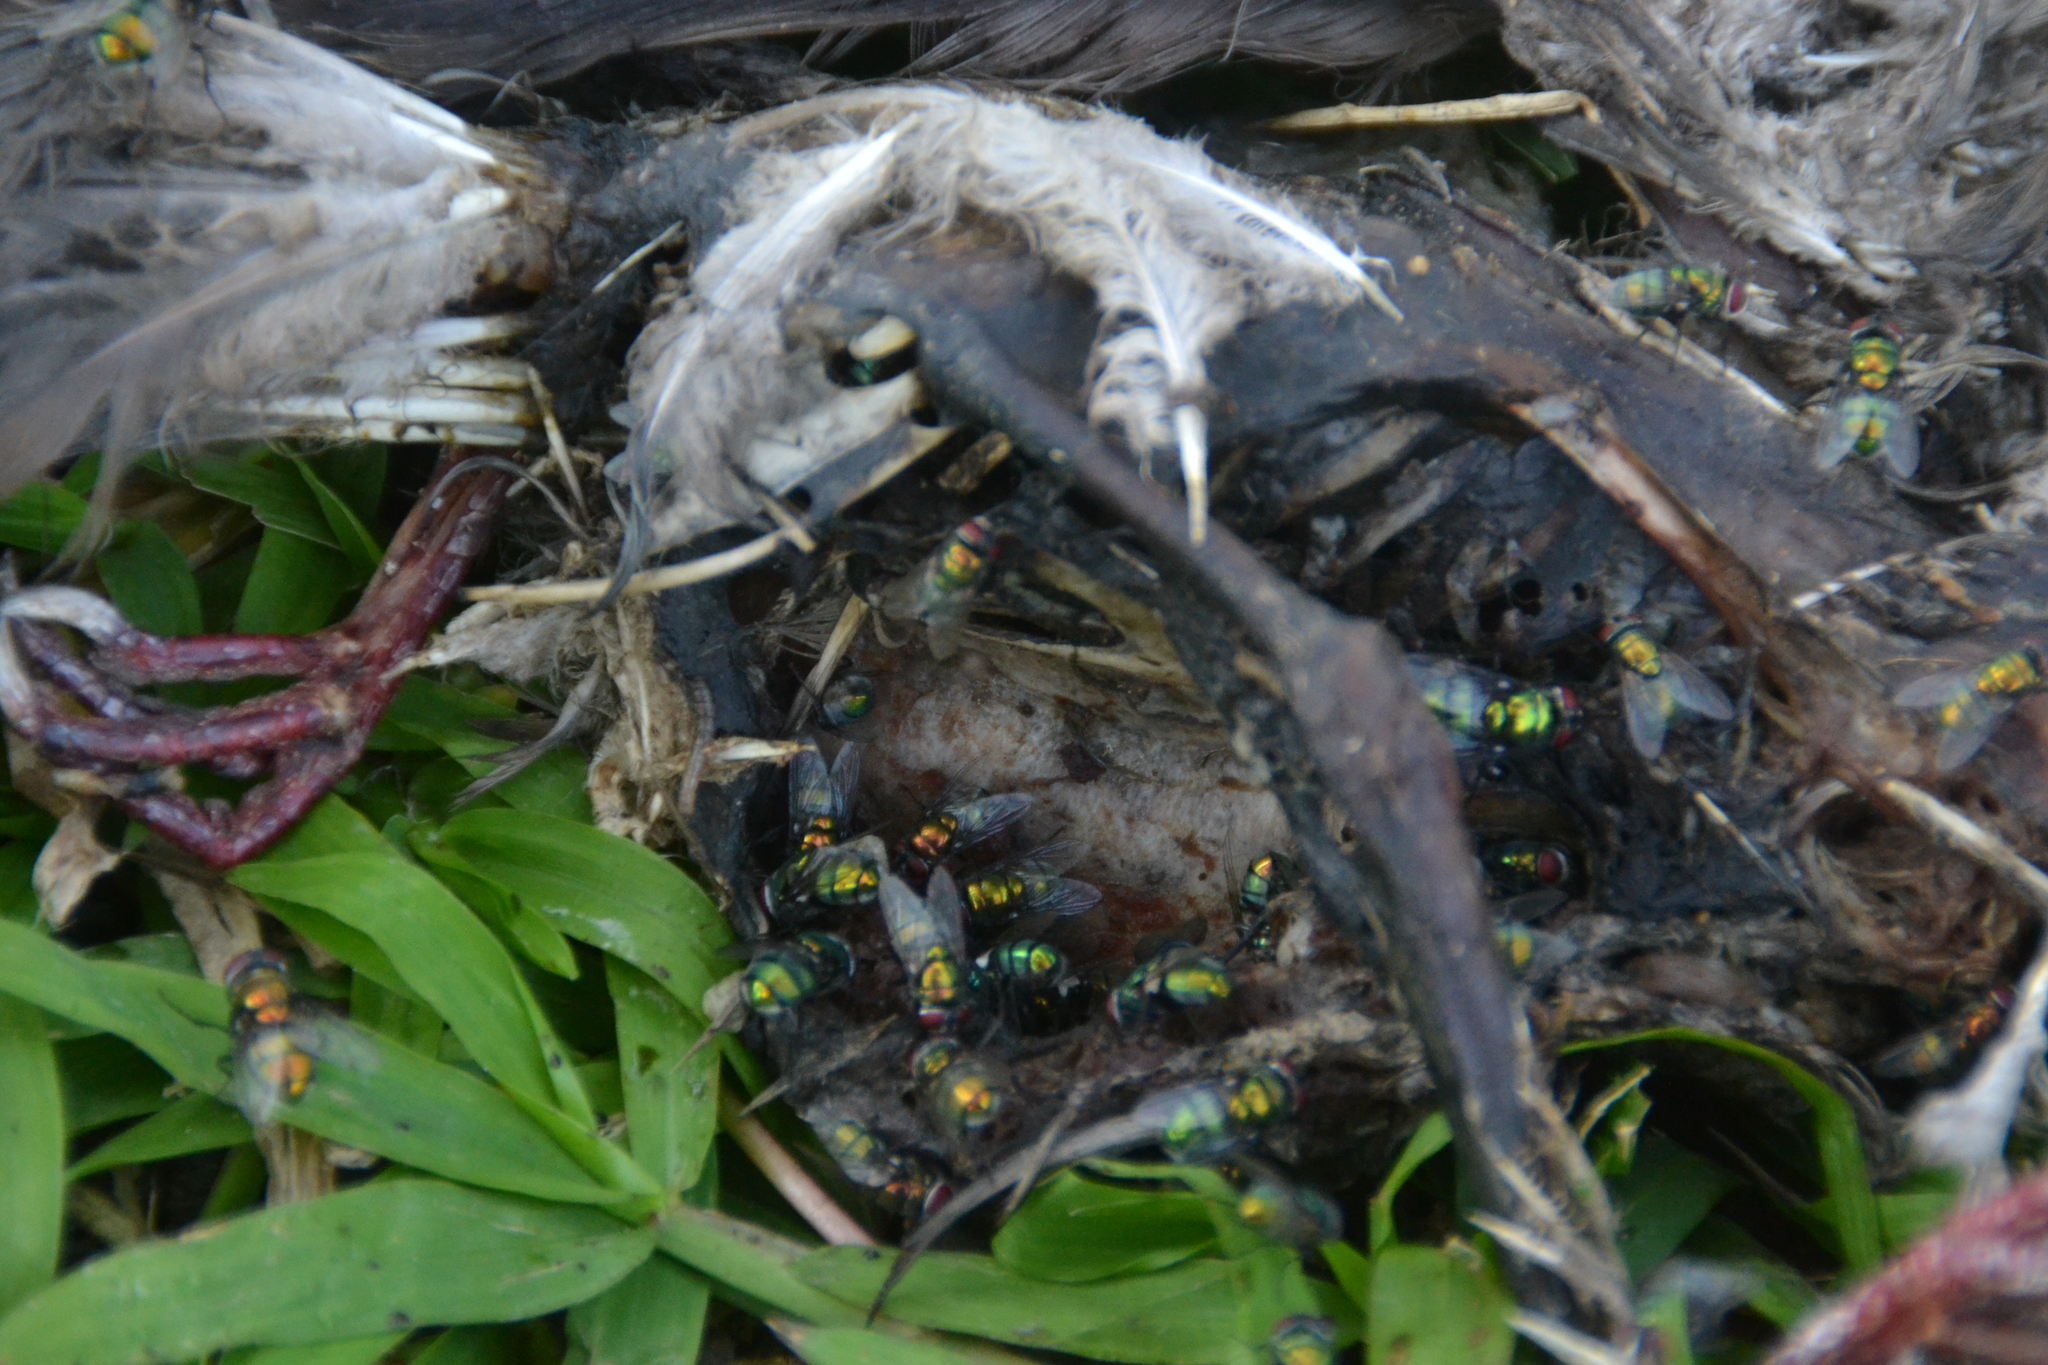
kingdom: Animalia
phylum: Chordata
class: Aves
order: Columbiformes
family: Columbidae
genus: Zenaida
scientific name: Zenaida meloda
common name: West peruvian dove
